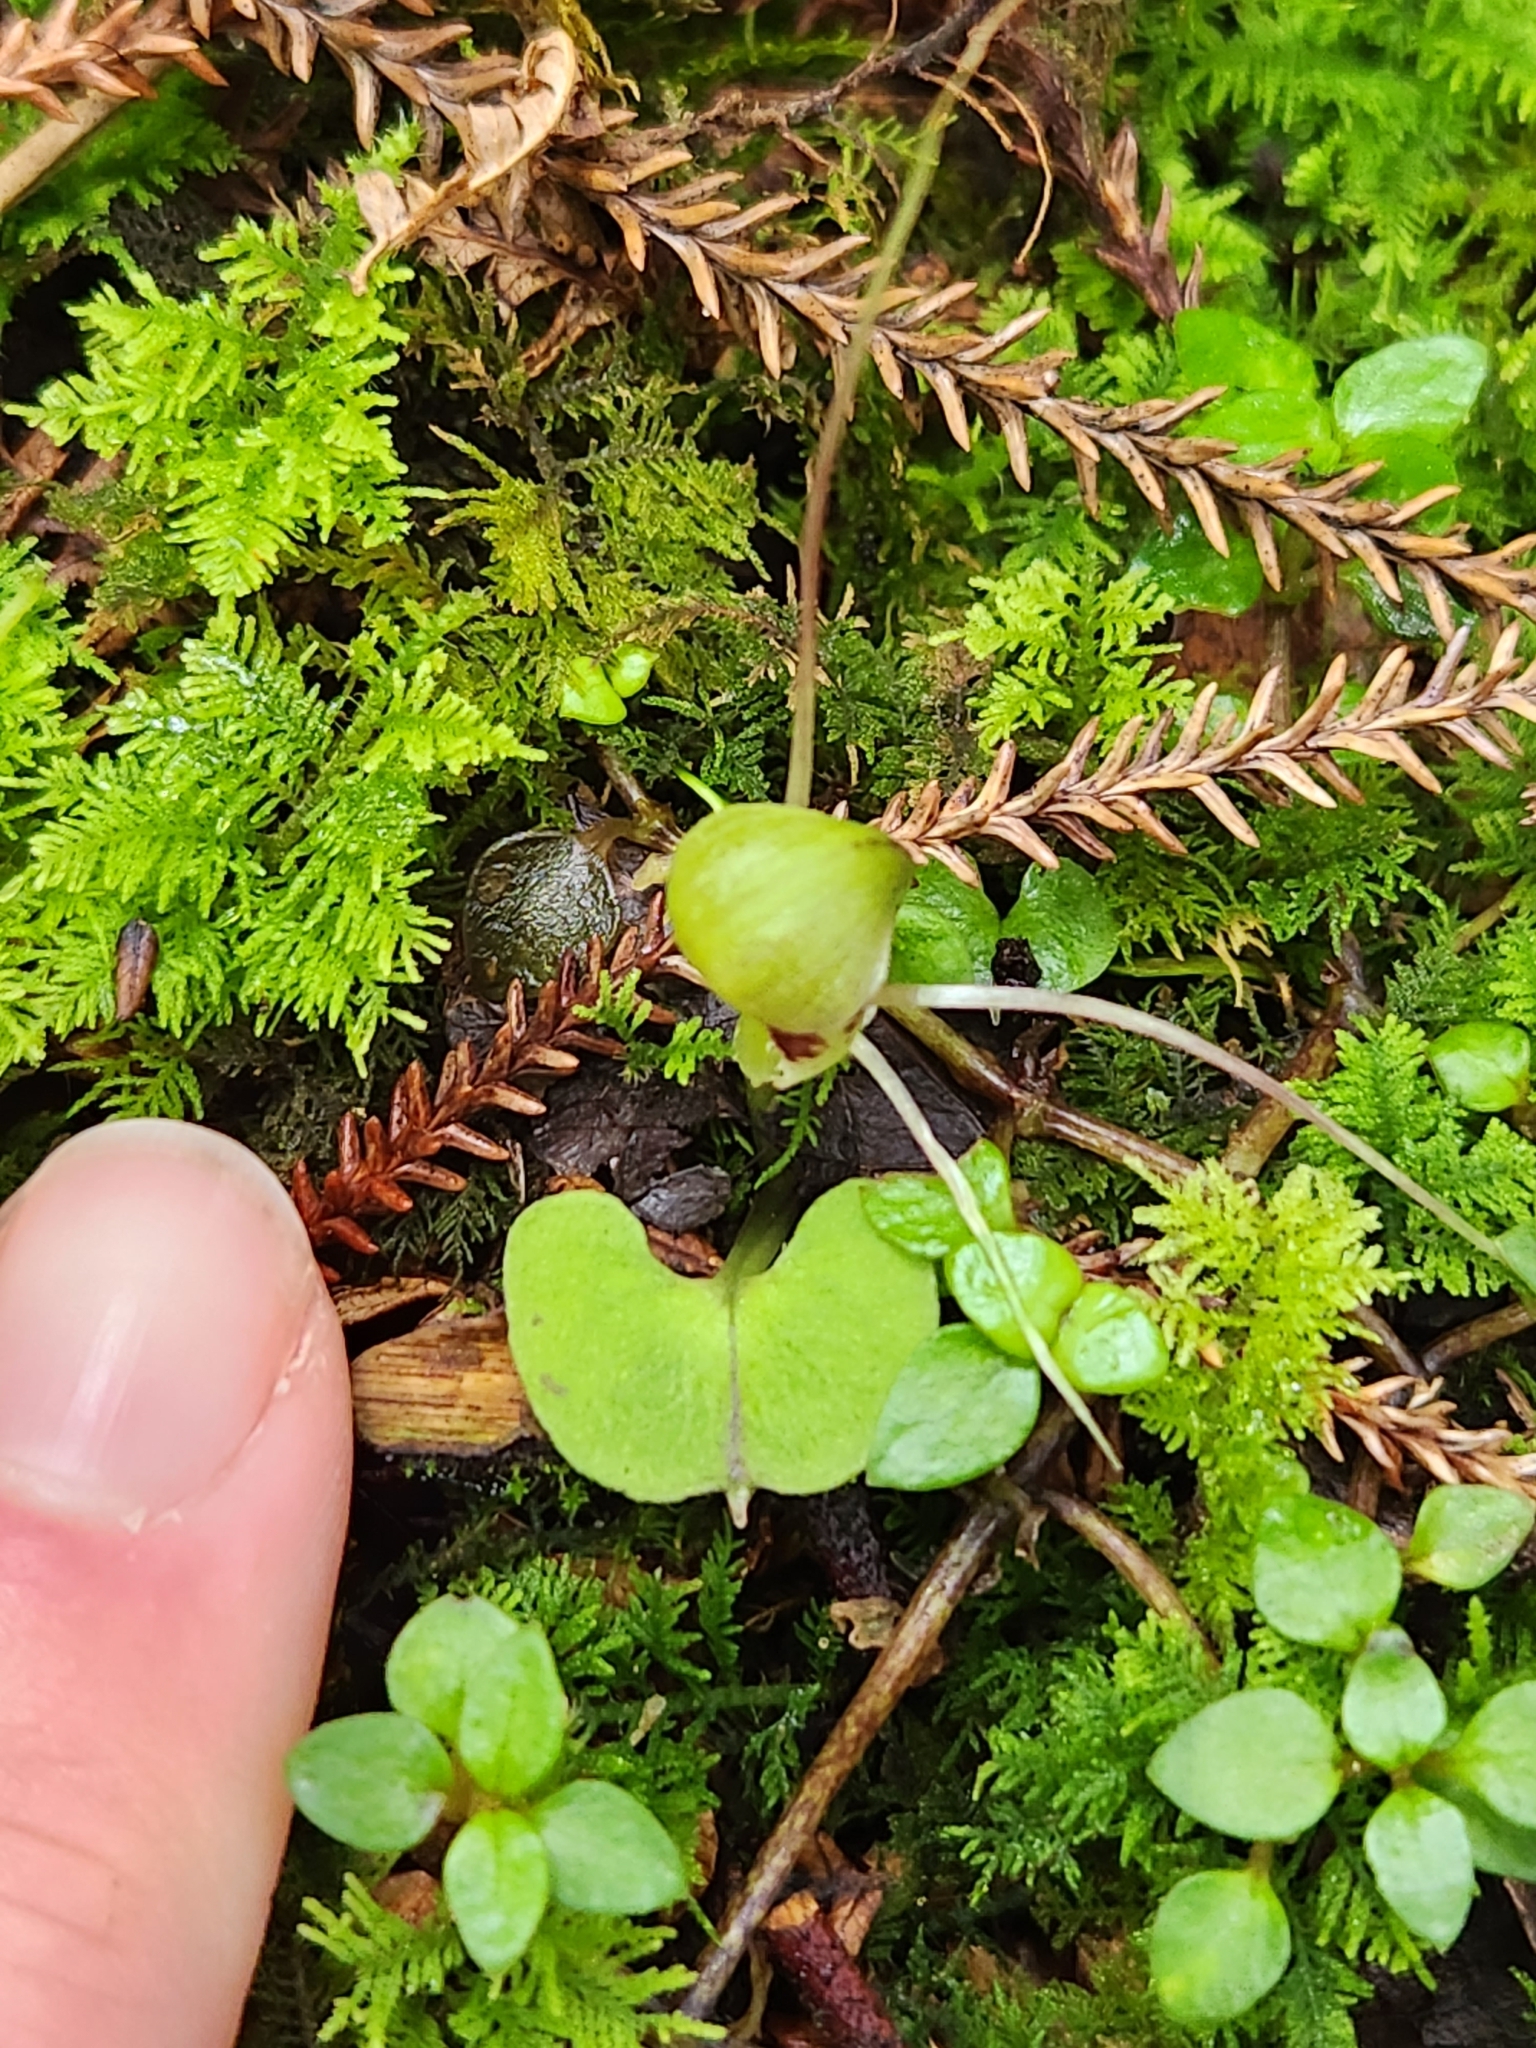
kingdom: Plantae
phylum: Tracheophyta
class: Liliopsida
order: Asparagales
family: Orchidaceae
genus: Corybas
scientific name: Corybas vitreus
